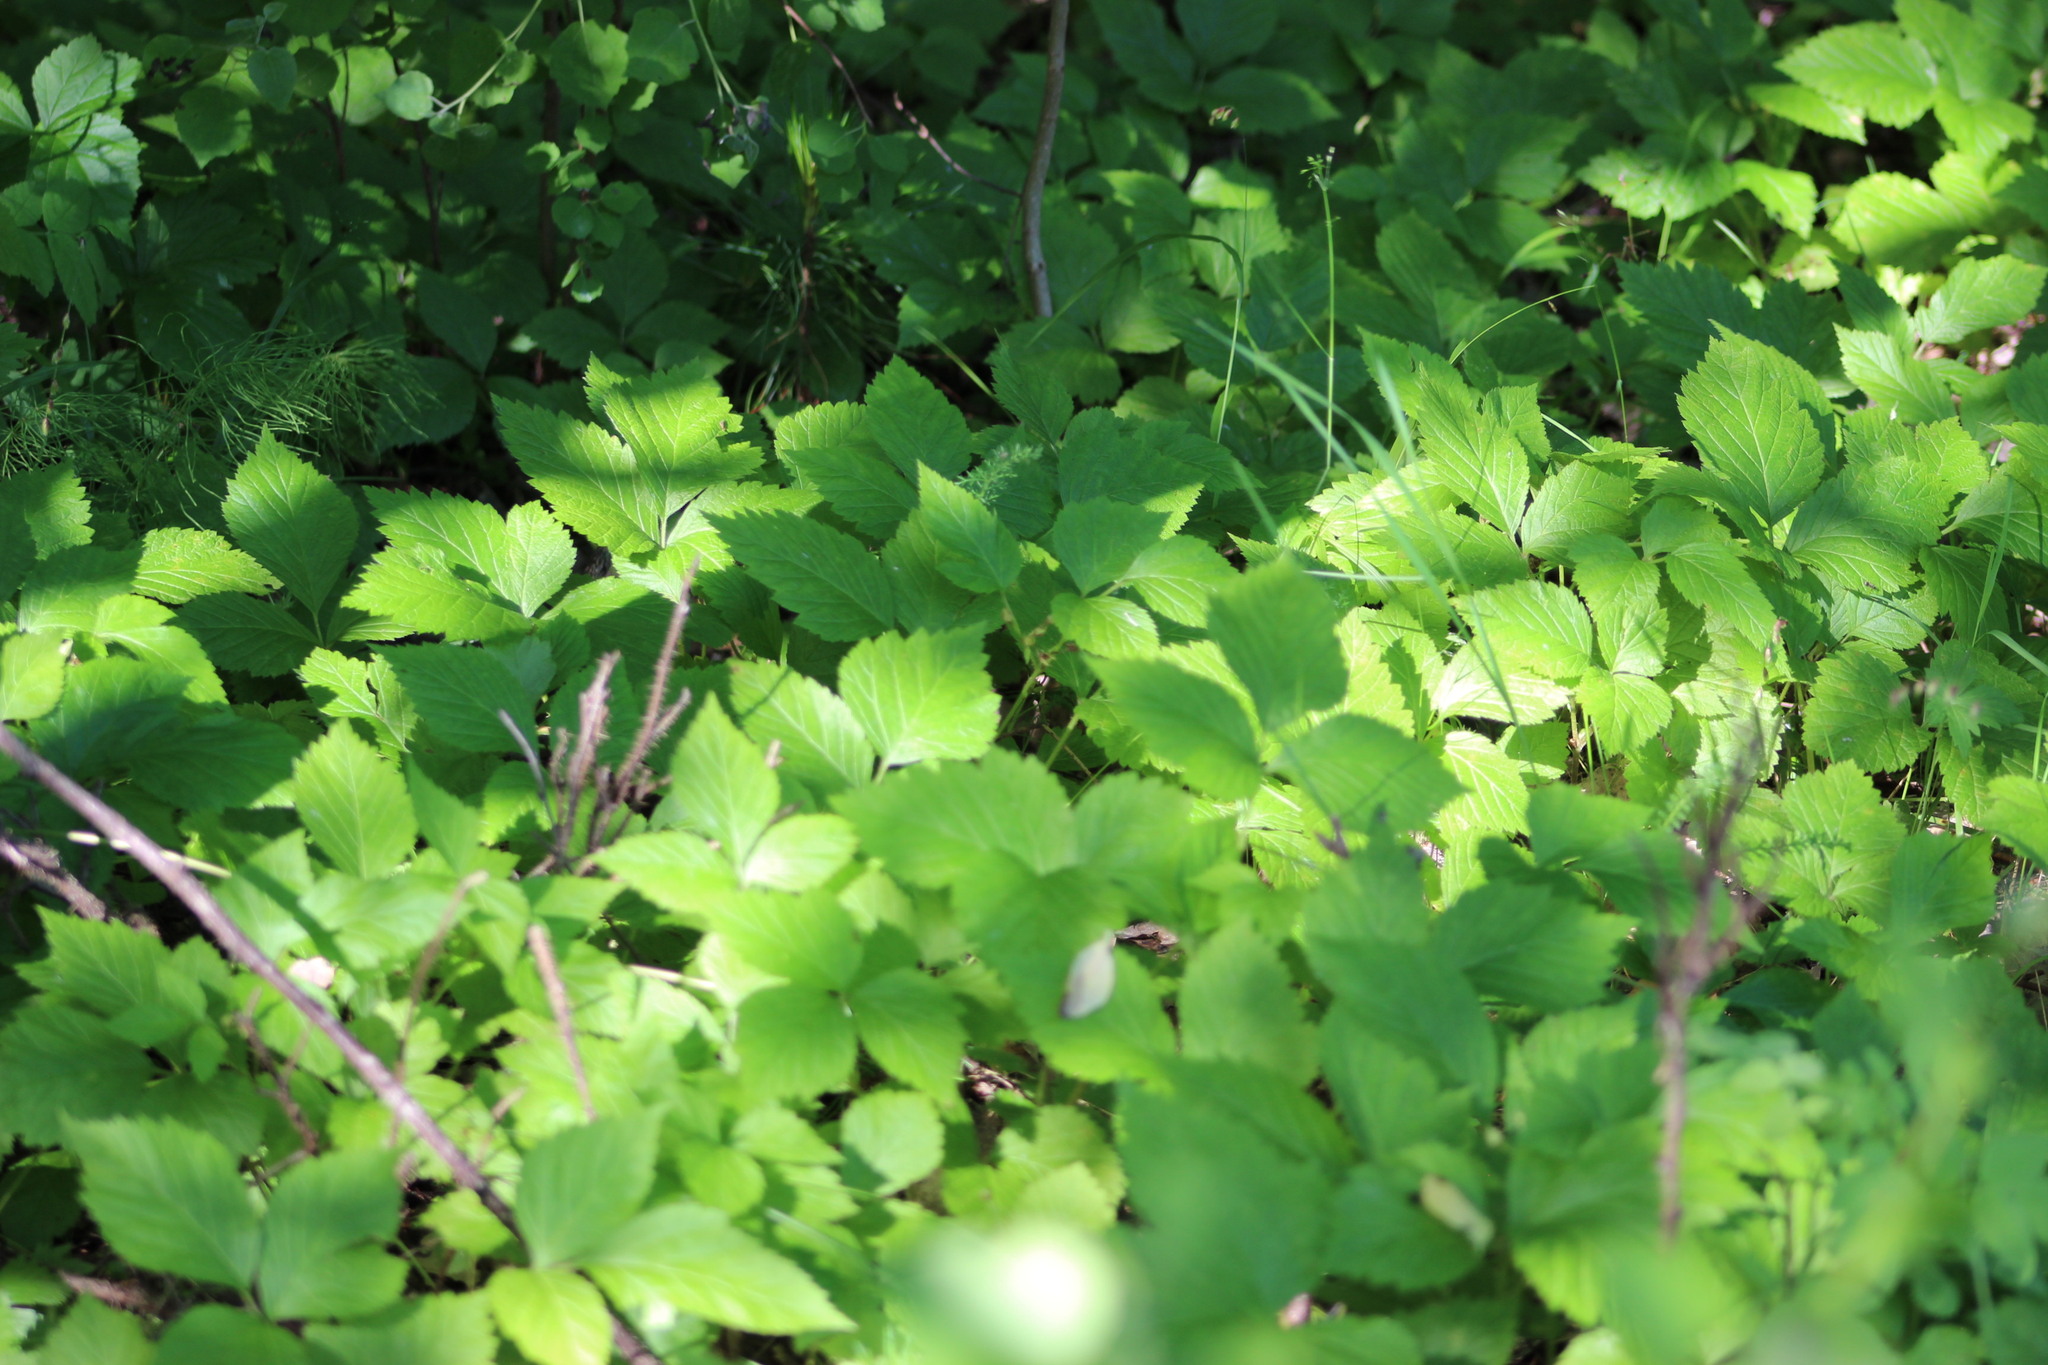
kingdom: Plantae
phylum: Tracheophyta
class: Magnoliopsida
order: Rosales
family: Rosaceae
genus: Rubus
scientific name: Rubus saxatilis
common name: Stone bramble
